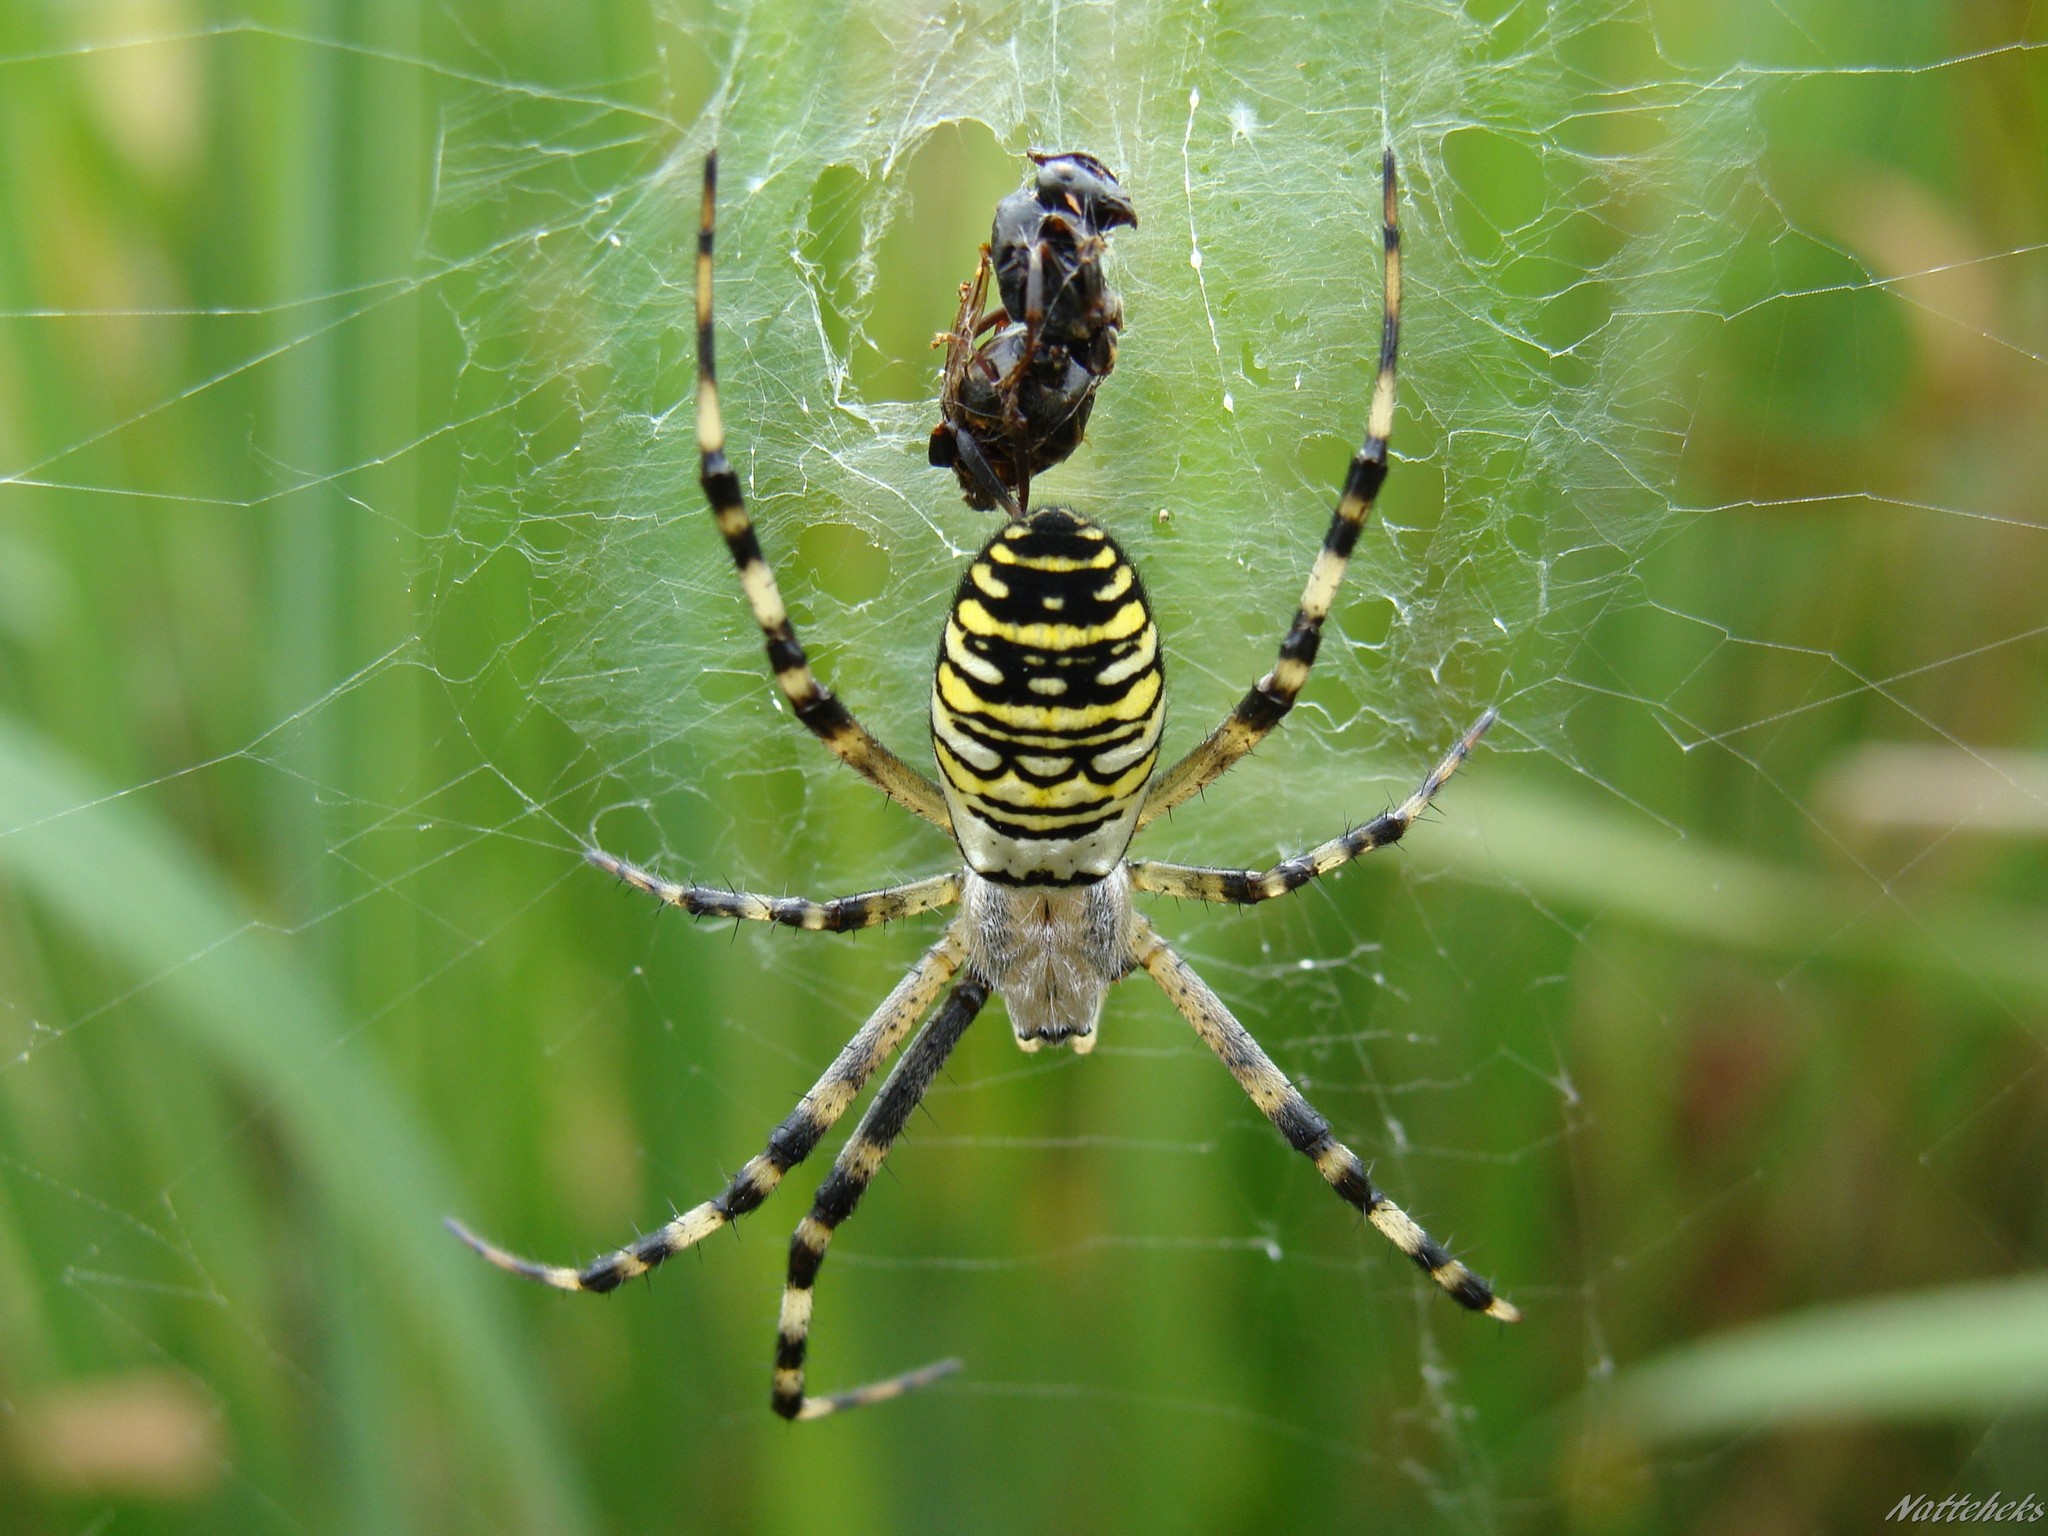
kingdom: Animalia
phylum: Arthropoda
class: Arachnida
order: Araneae
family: Araneidae
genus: Argiope
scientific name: Argiope bruennichi
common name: Wasp spider
